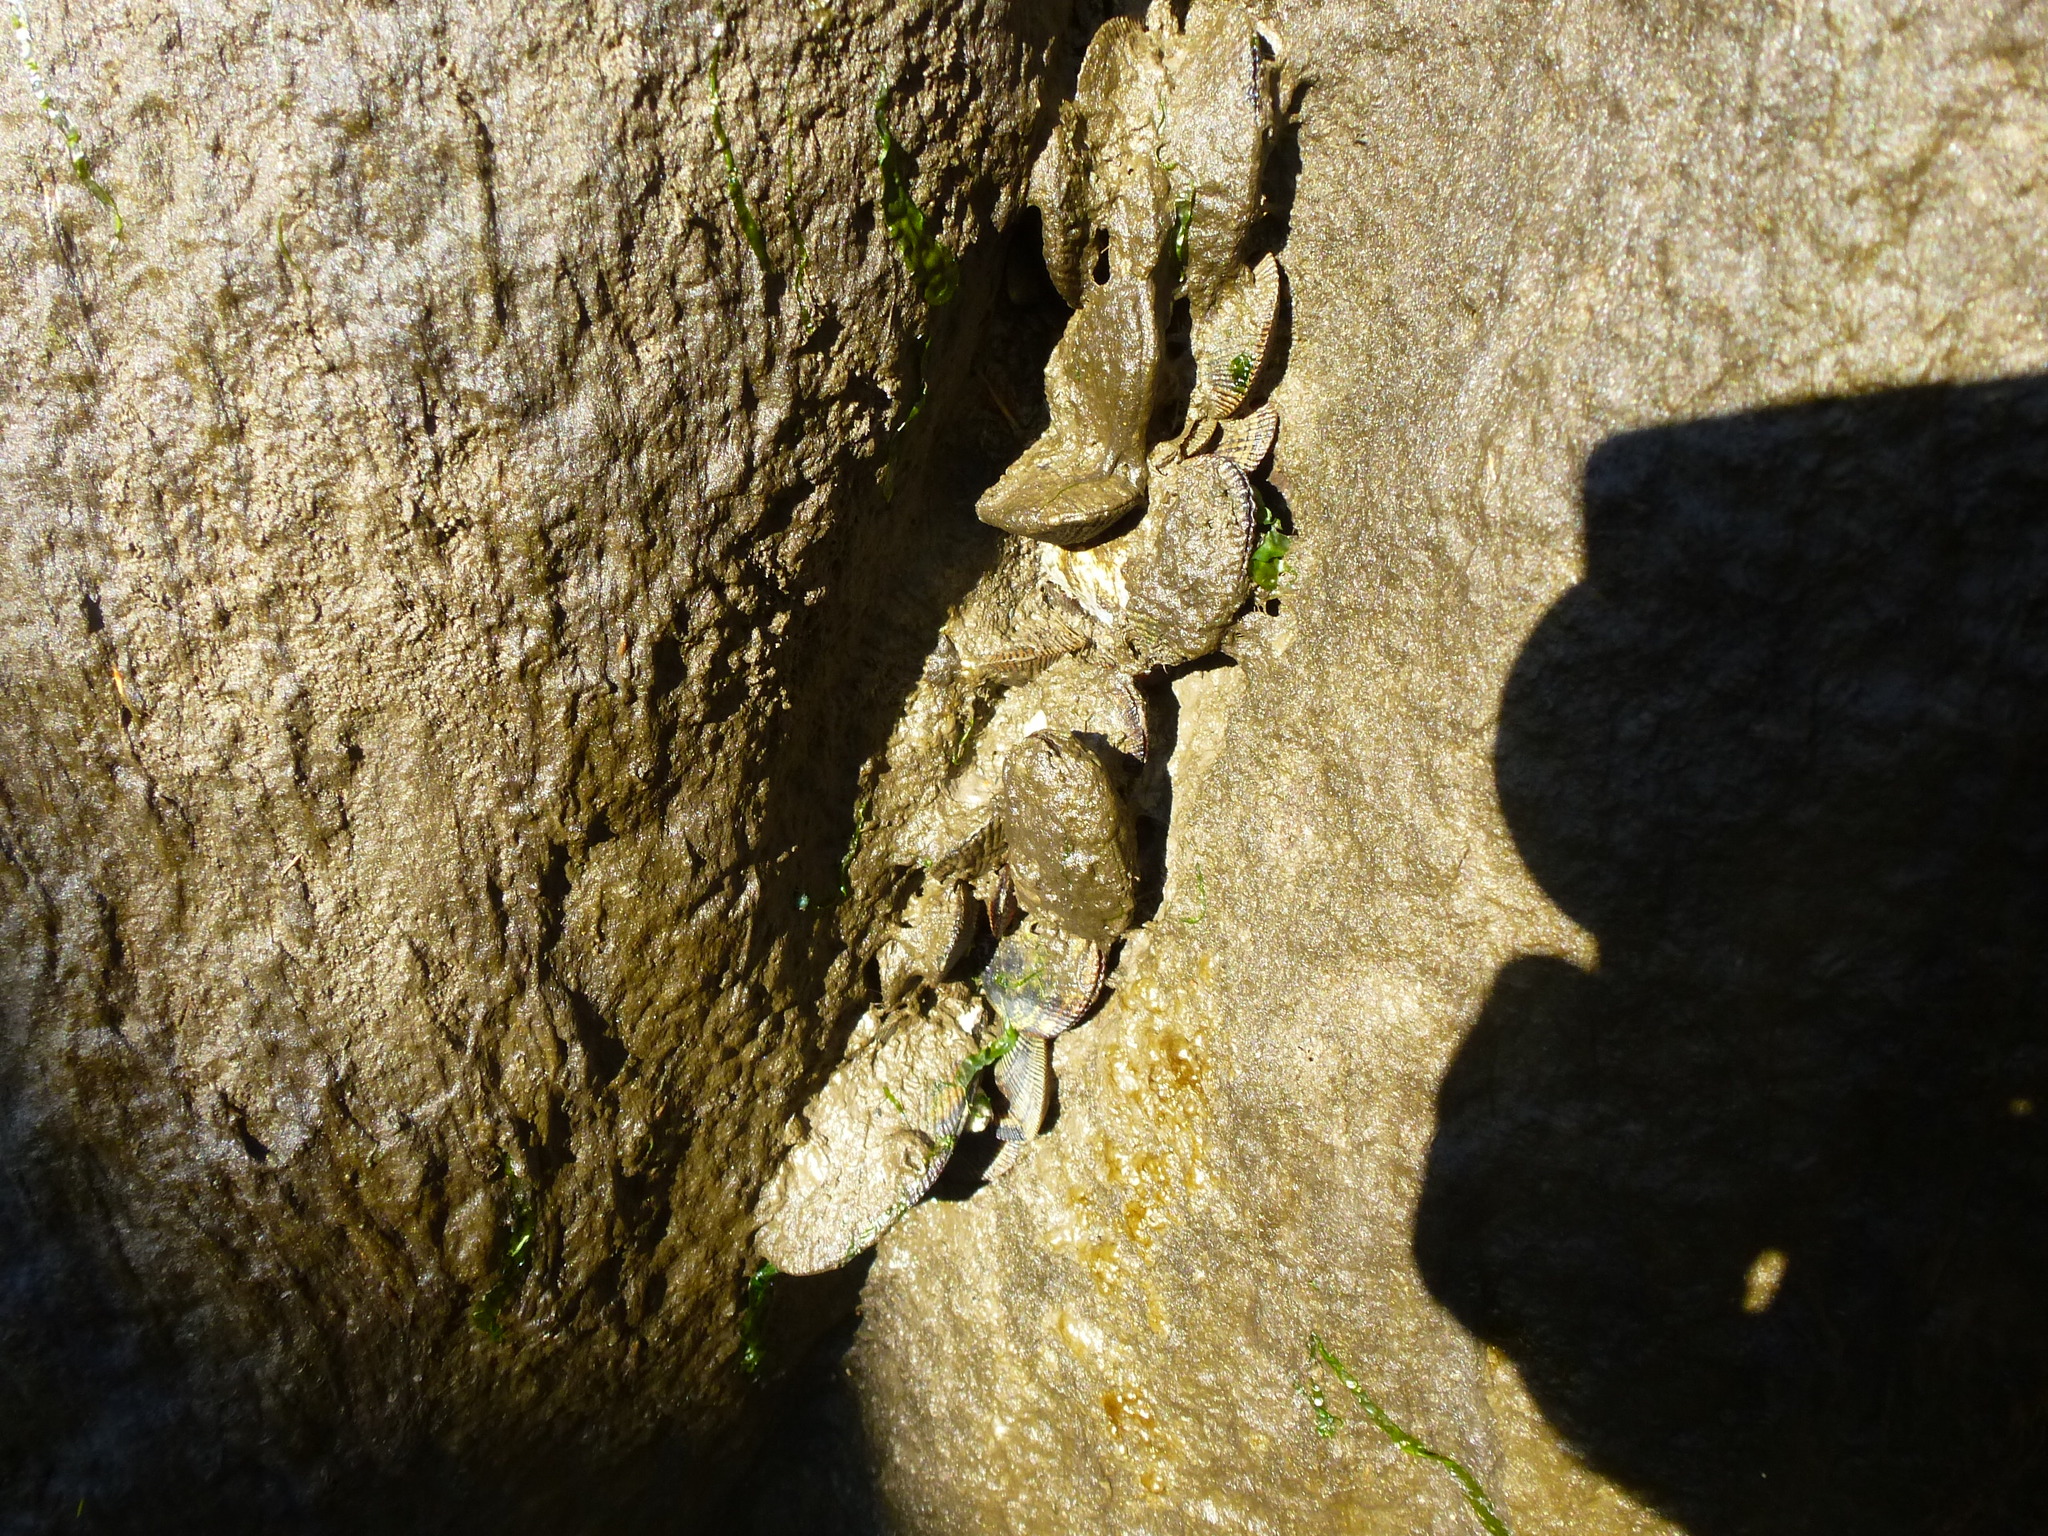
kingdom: Animalia
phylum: Mollusca
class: Bivalvia
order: Mytilida
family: Mytilidae
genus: Geukensia
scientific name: Geukensia demissa
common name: Ribbed mussel
